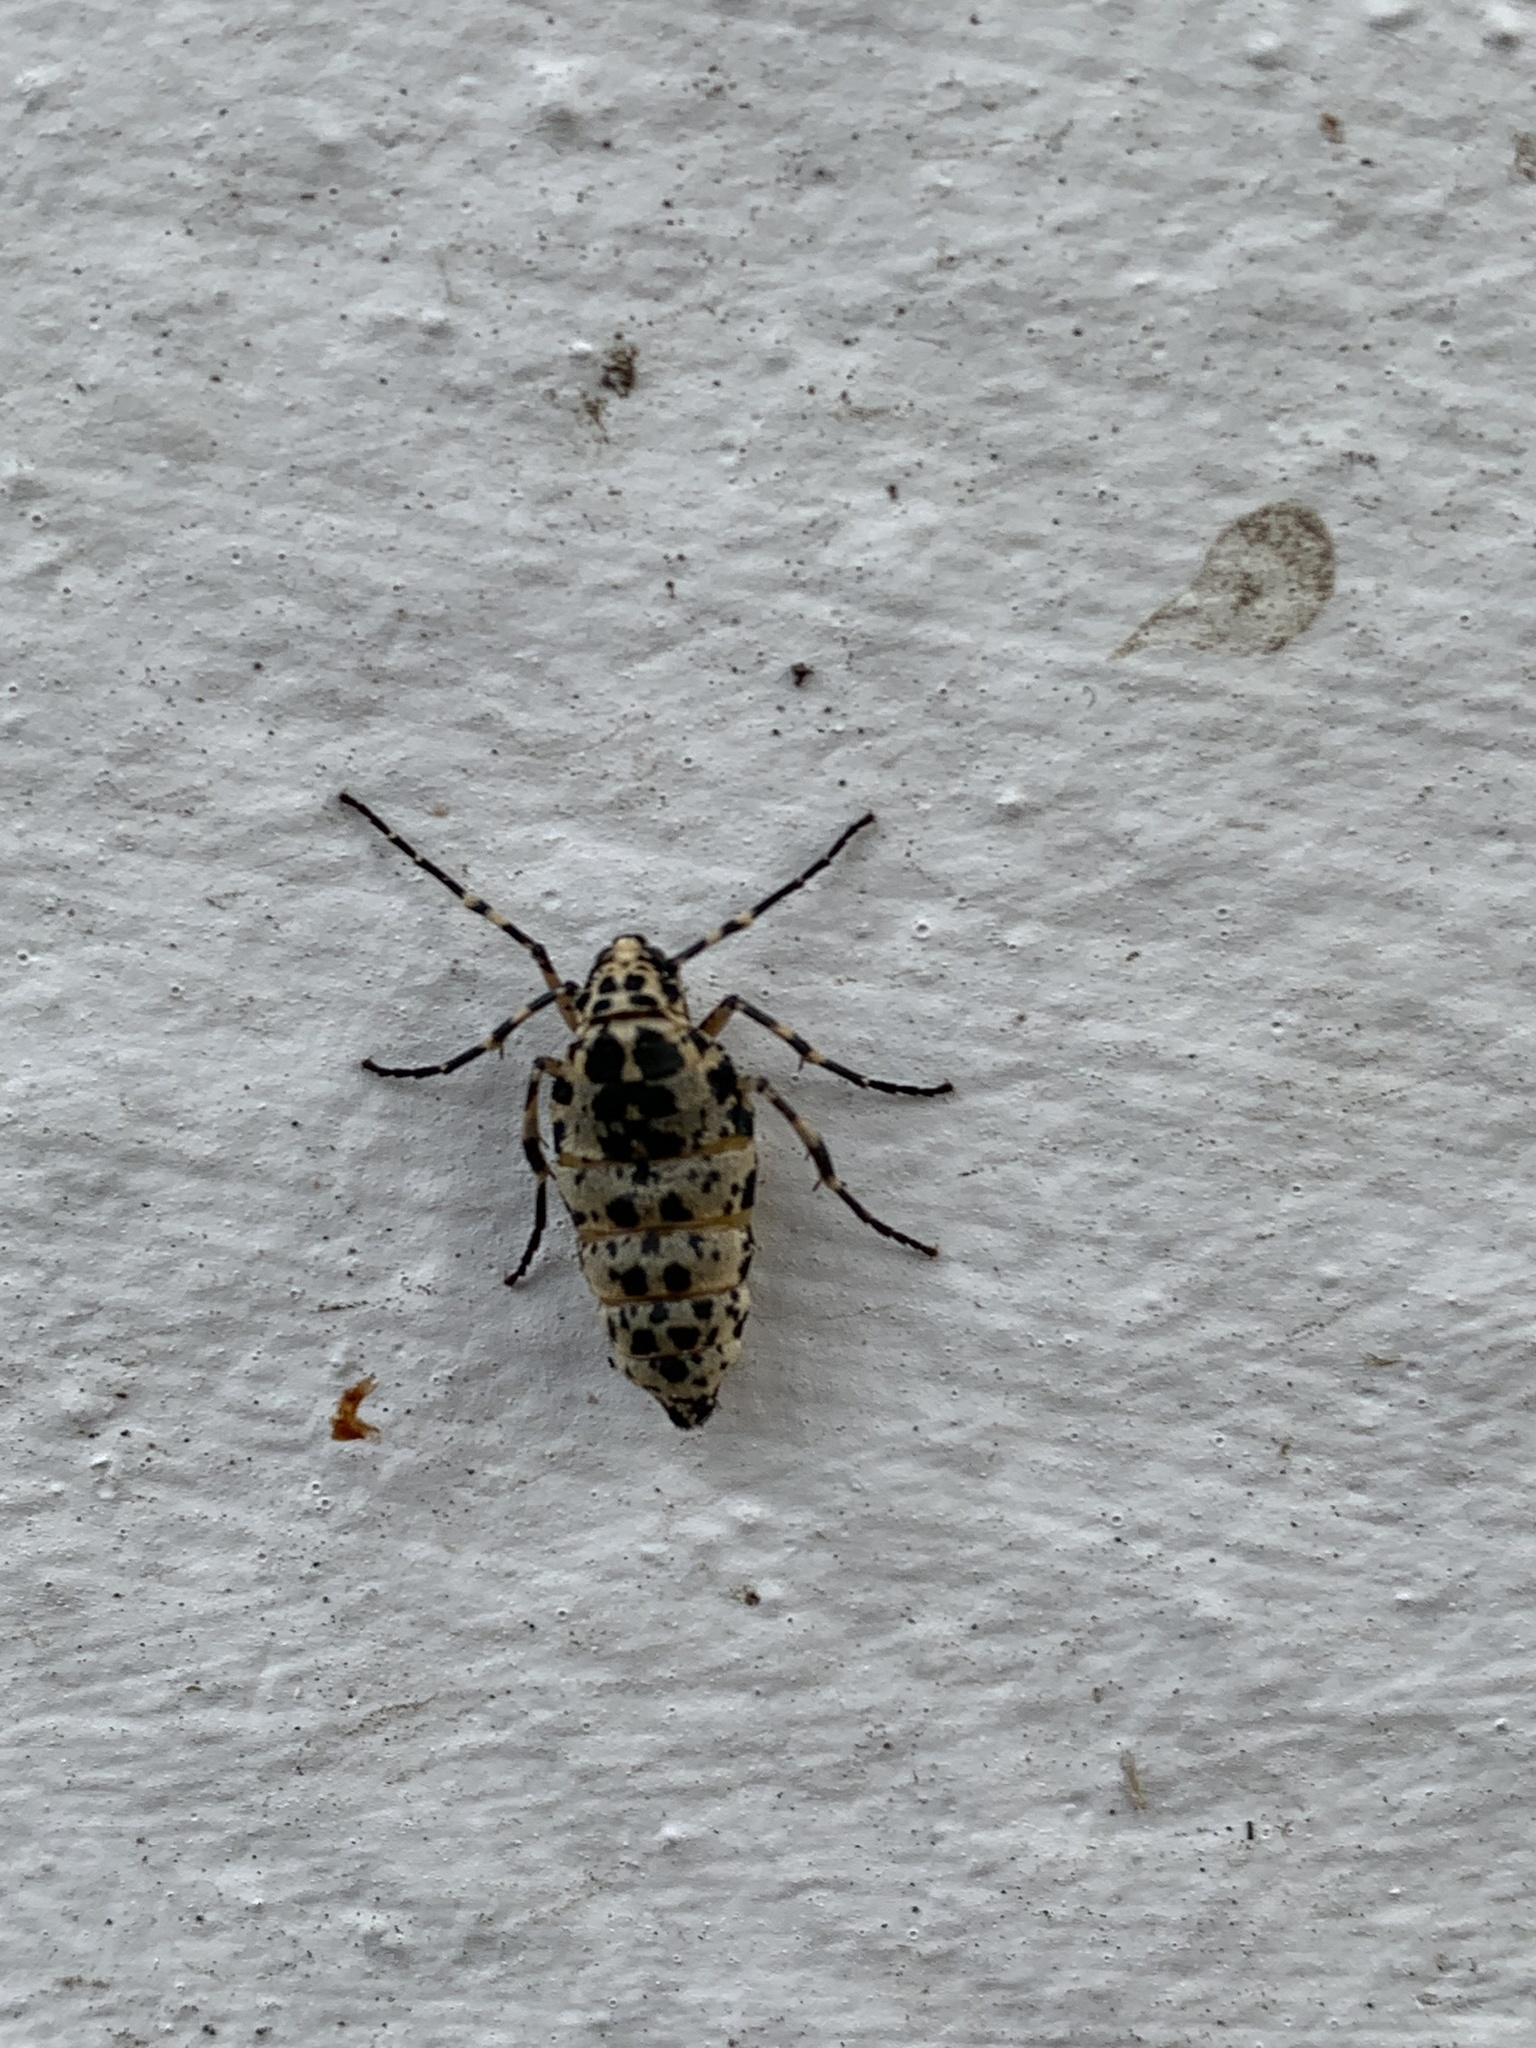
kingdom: Animalia
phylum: Arthropoda
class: Insecta
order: Lepidoptera
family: Geometridae
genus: Erannis
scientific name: Erannis defoliaria
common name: Mottled umber
